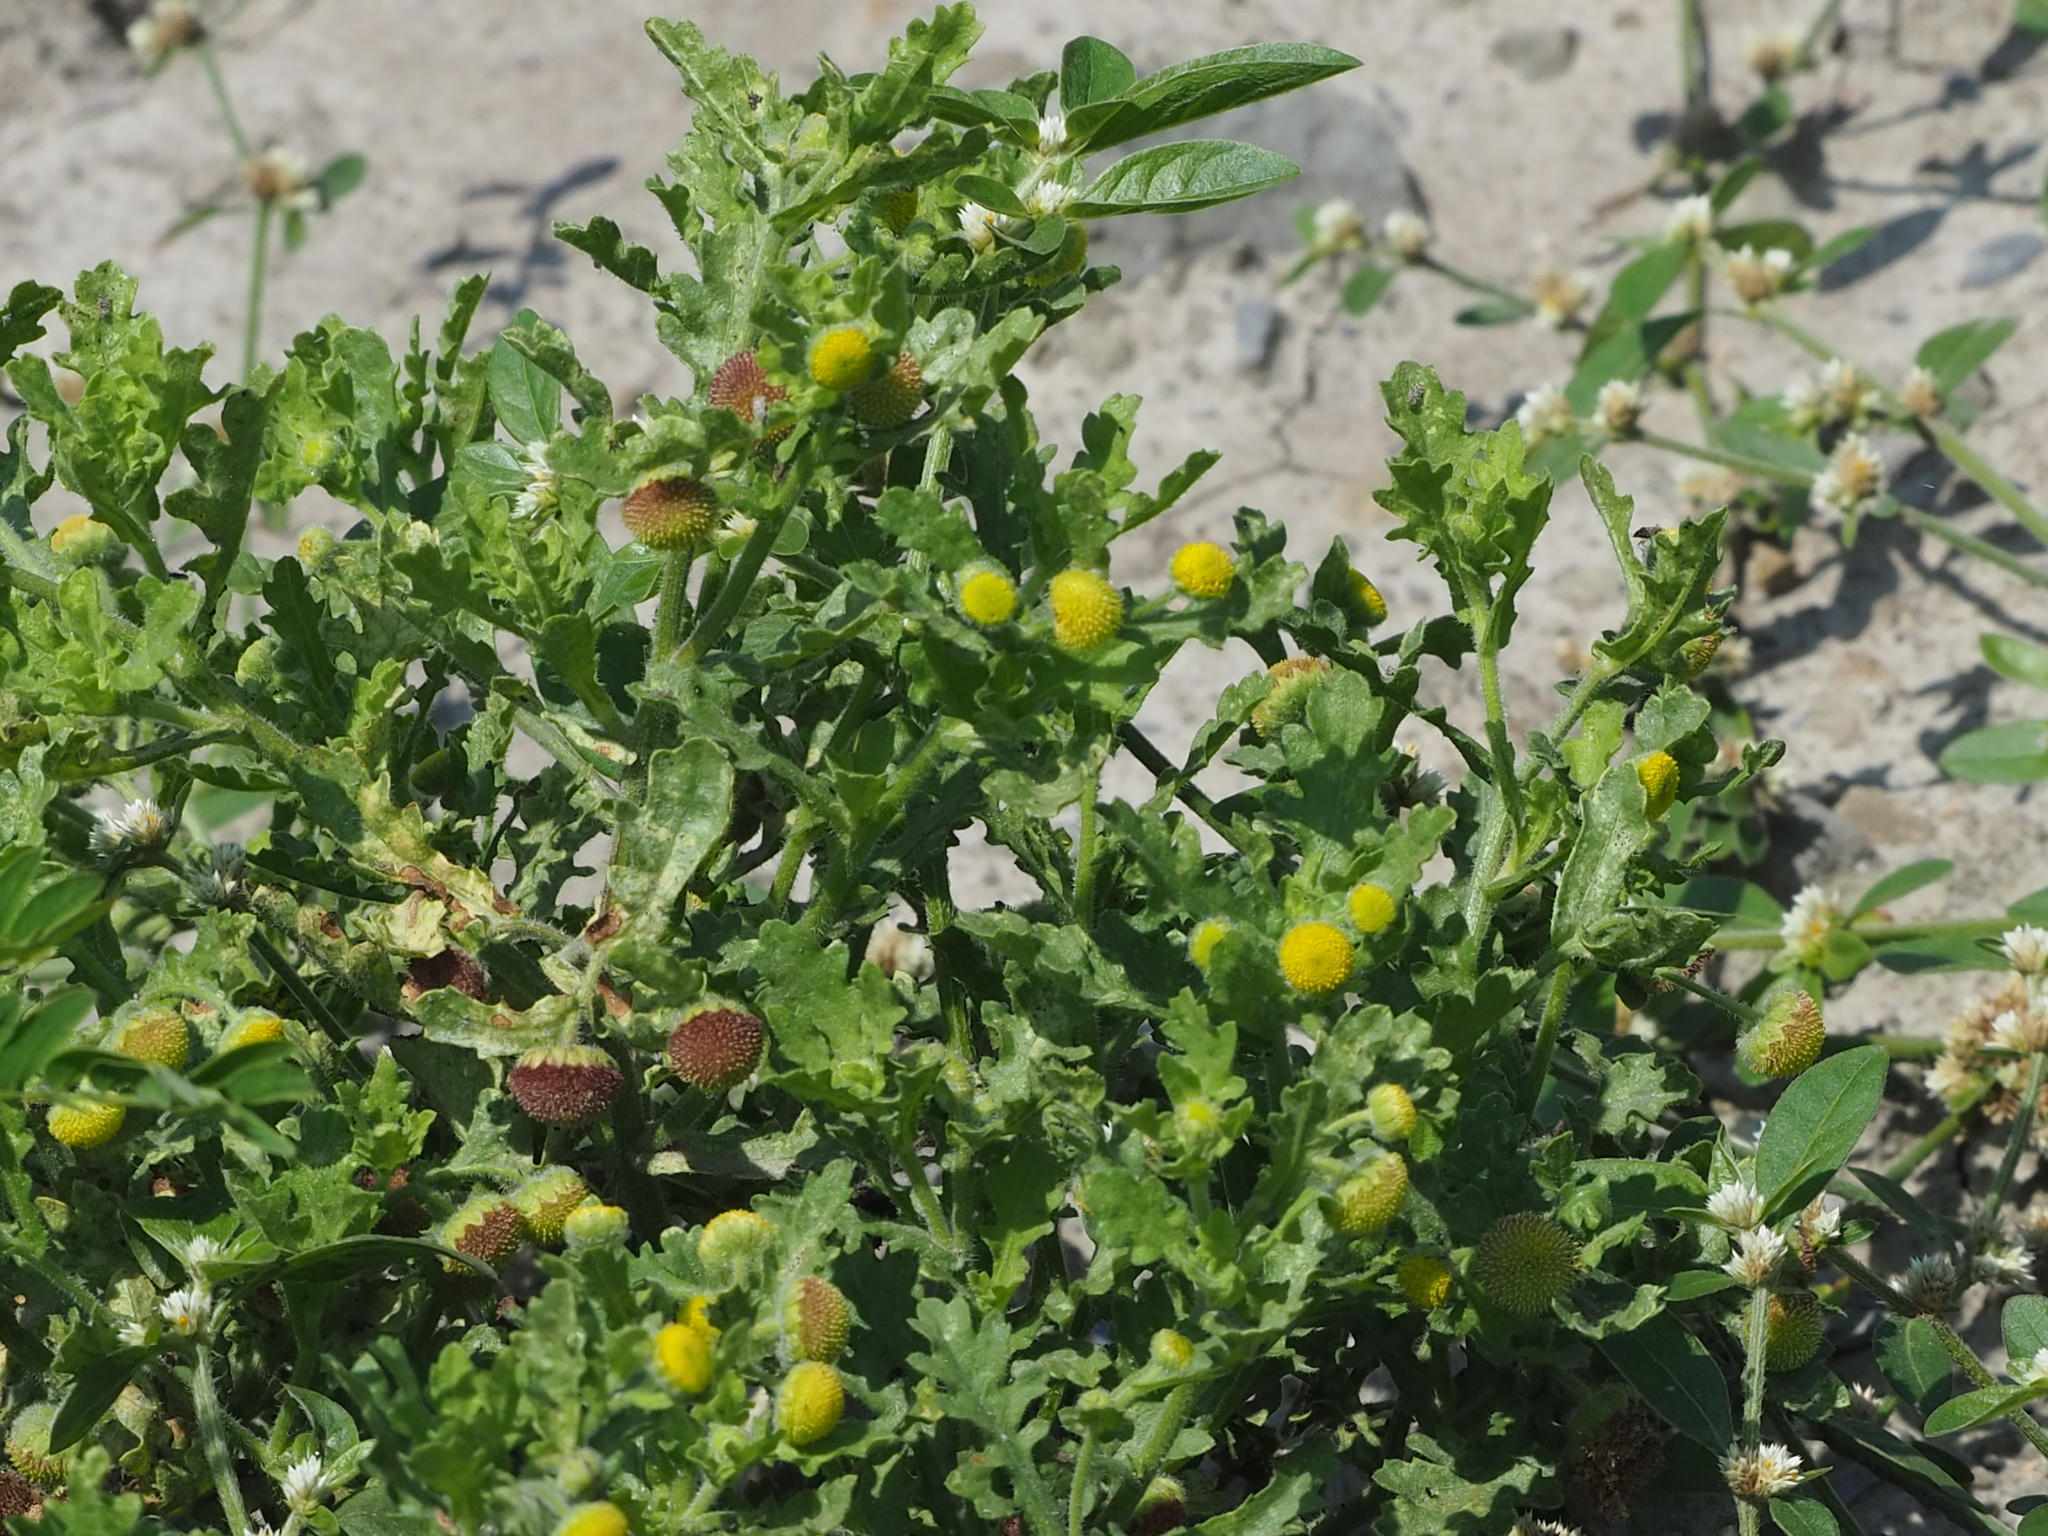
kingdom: Plantae
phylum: Tracheophyta
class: Magnoliopsida
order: Asterales
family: Asteraceae
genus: Grangea
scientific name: Grangea maderaspatana
